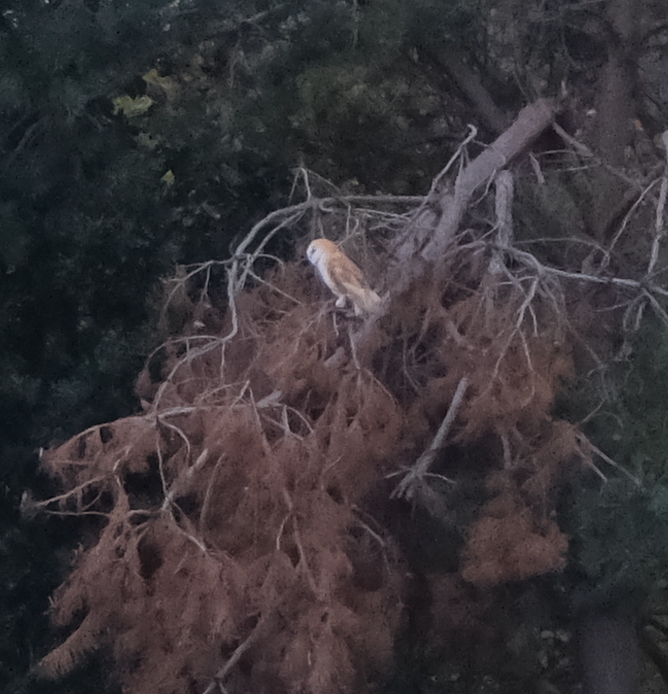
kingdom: Animalia
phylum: Chordata
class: Aves
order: Strigiformes
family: Tytonidae
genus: Tyto
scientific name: Tyto alba
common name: Barn owl
